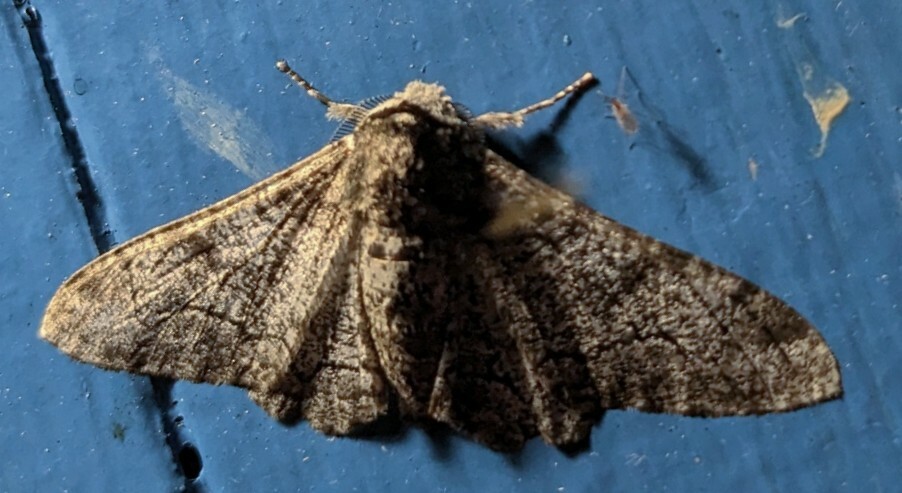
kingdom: Animalia
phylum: Arthropoda
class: Insecta
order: Lepidoptera
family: Geometridae
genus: Biston
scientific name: Biston betularia
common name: Peppered moth
